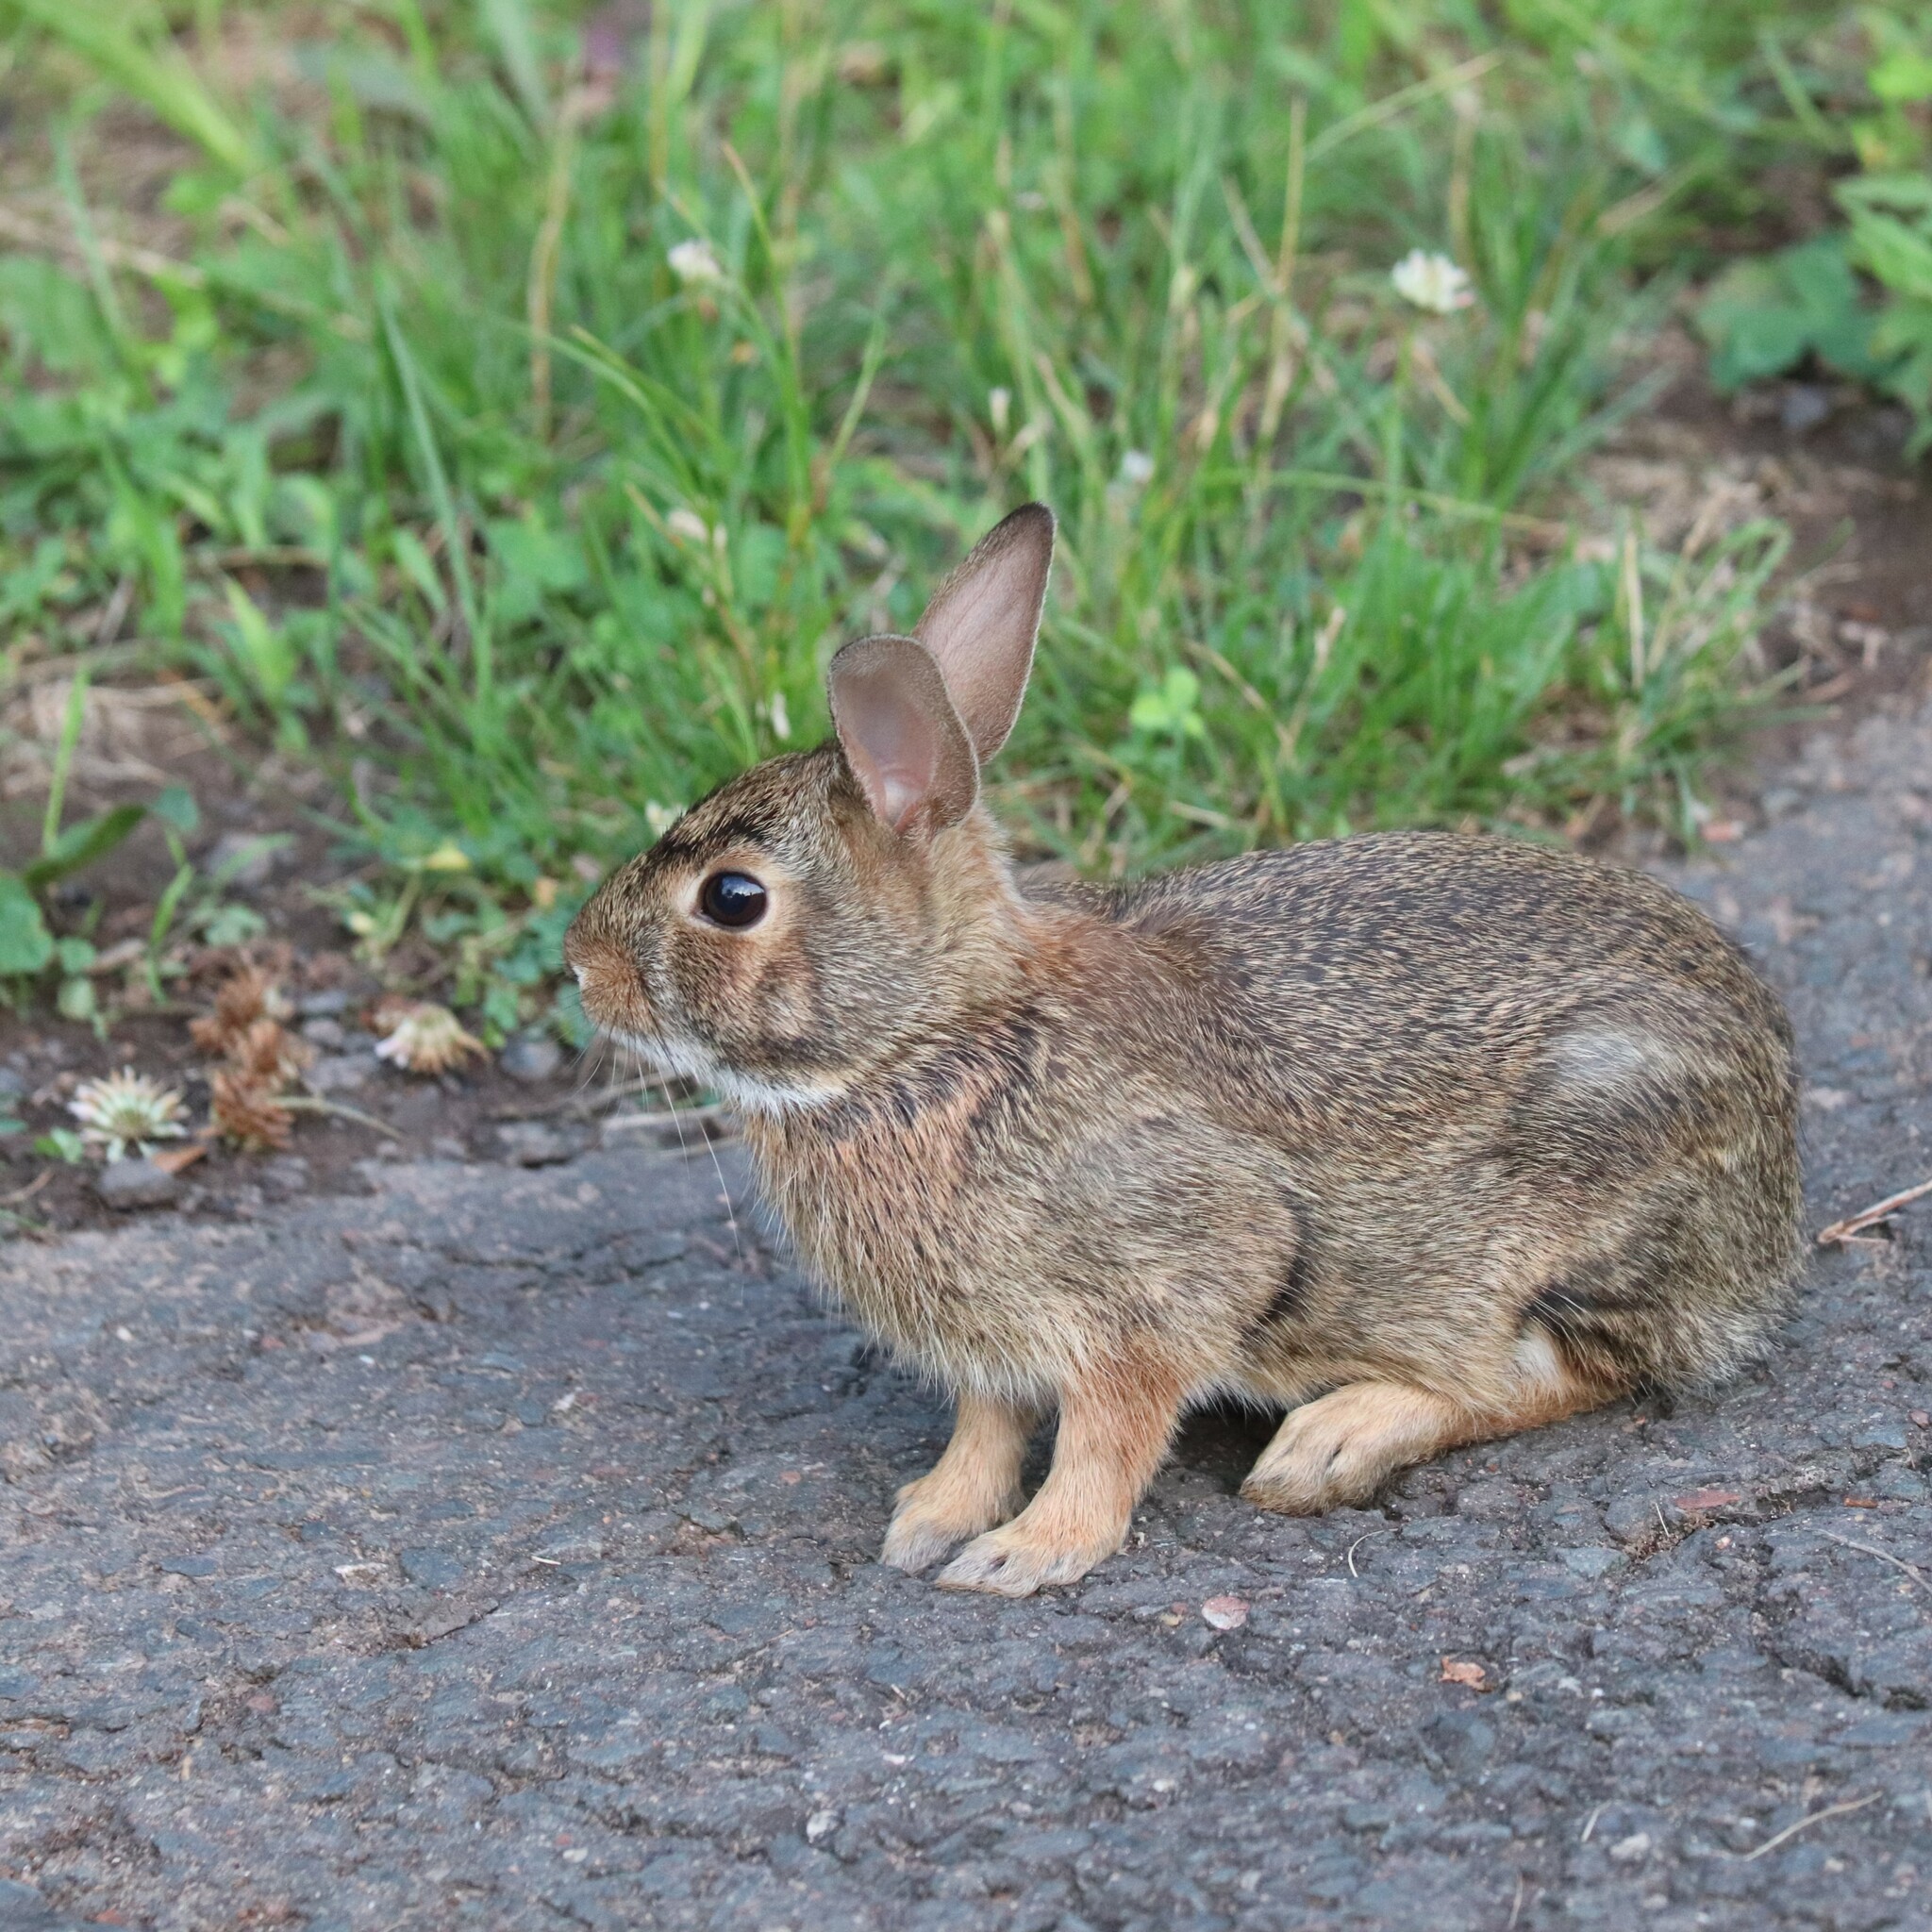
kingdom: Animalia
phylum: Chordata
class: Mammalia
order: Lagomorpha
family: Leporidae
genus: Sylvilagus
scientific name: Sylvilagus floridanus
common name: Eastern cottontail
